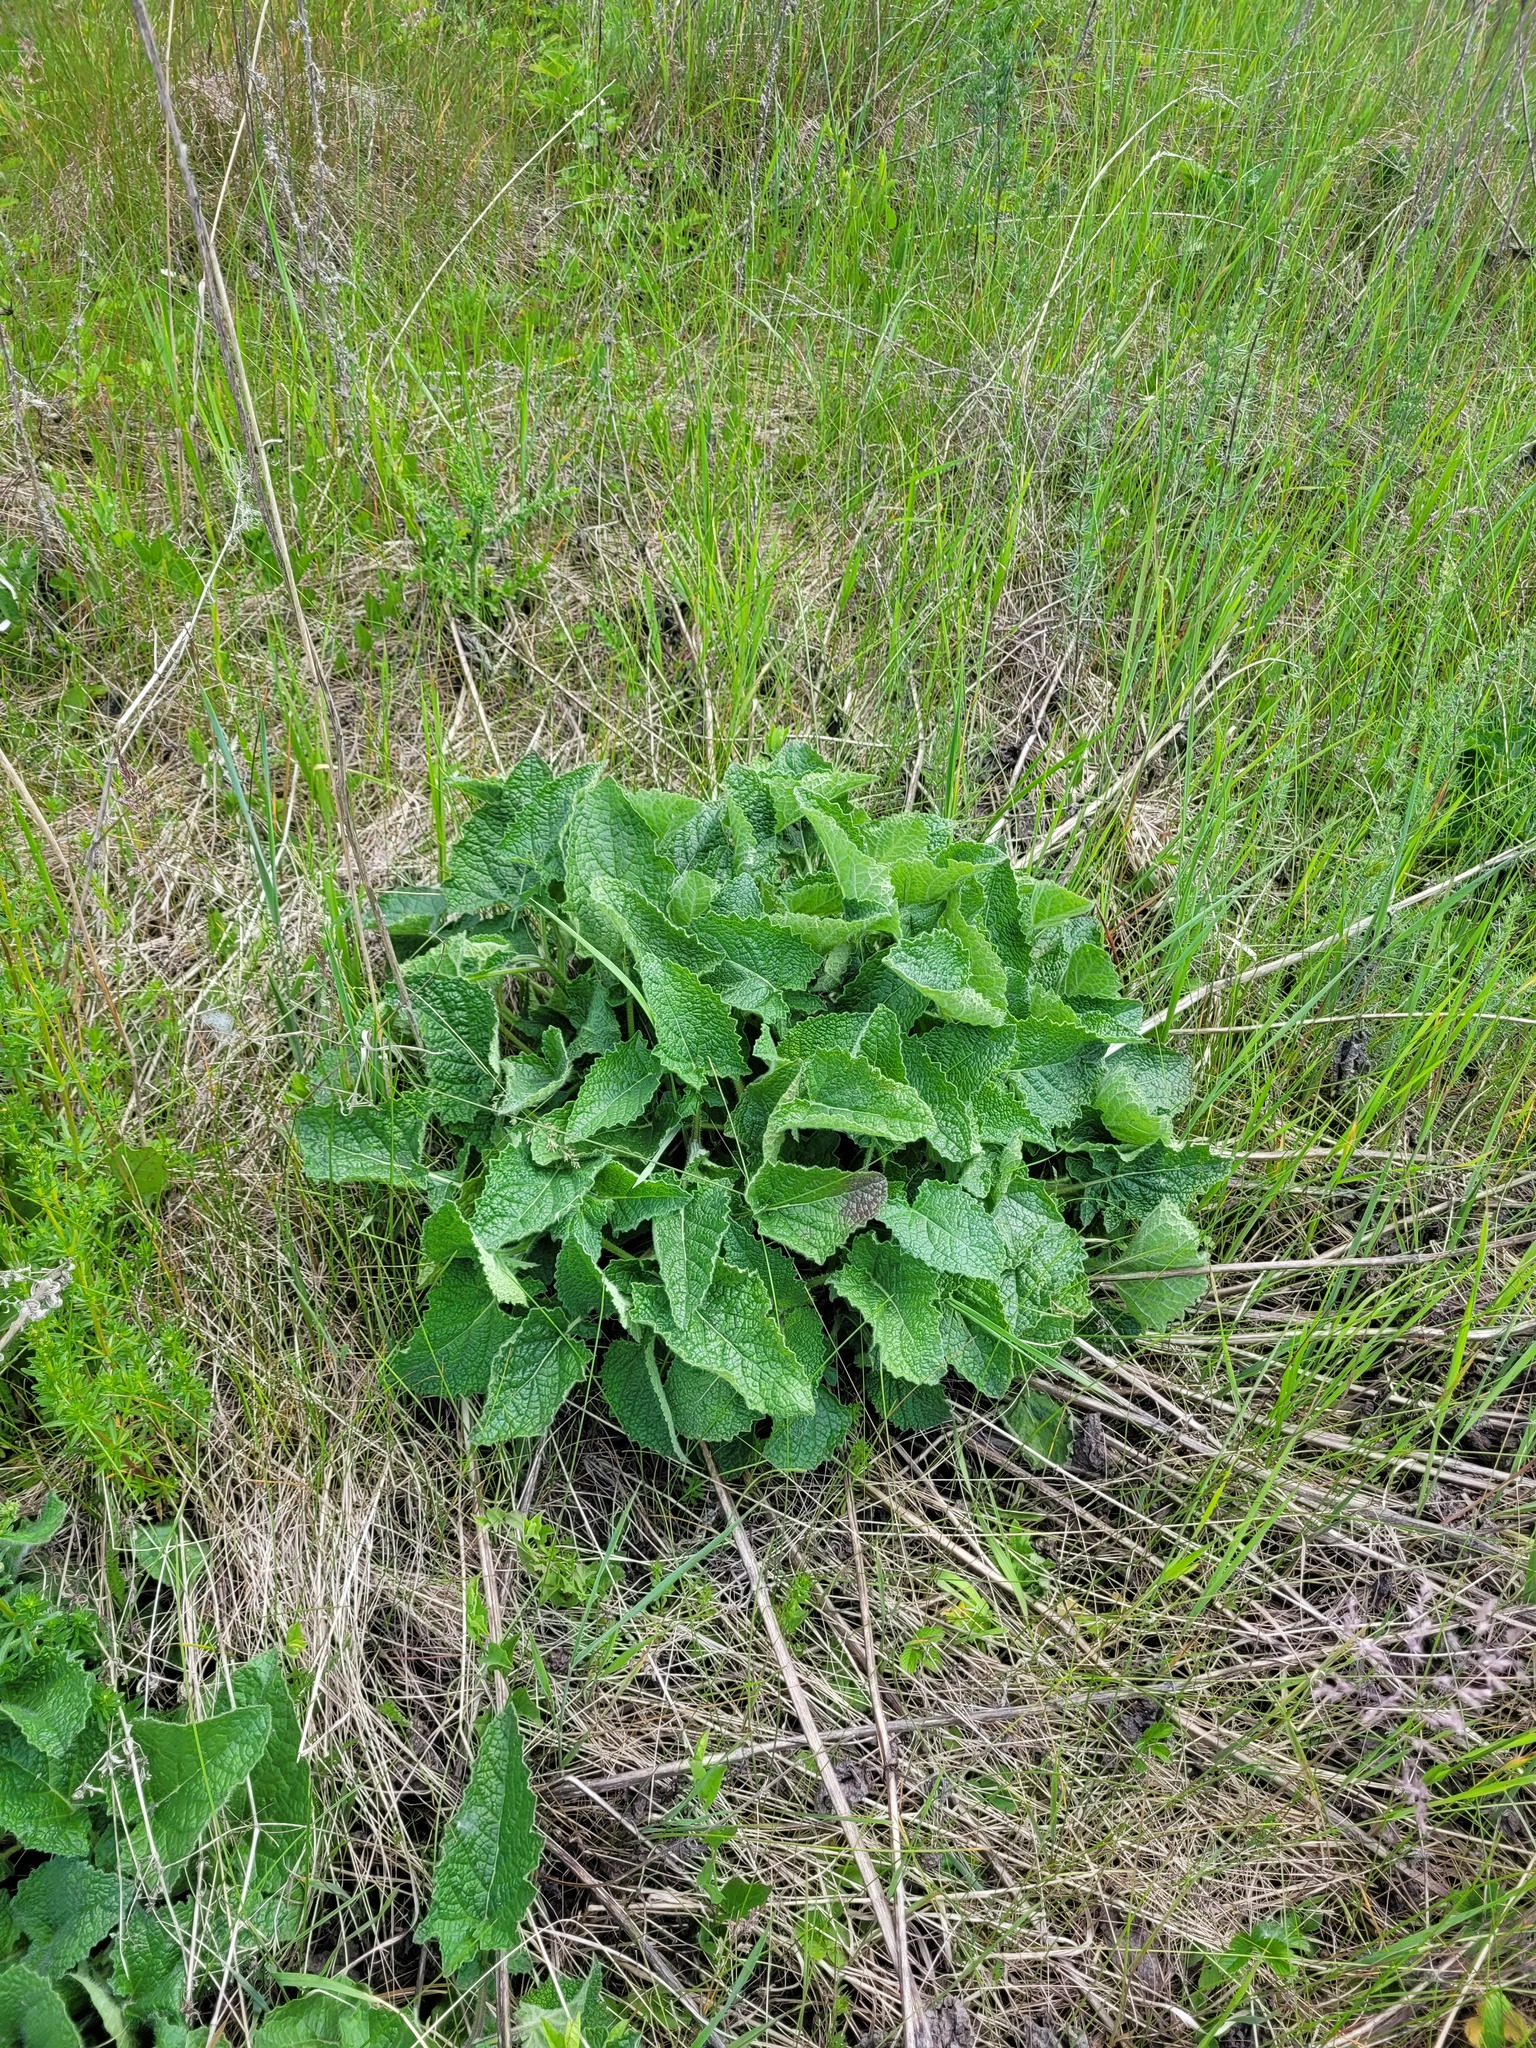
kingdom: Plantae
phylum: Tracheophyta
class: Magnoliopsida
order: Lamiales
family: Lamiaceae
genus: Salvia
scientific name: Salvia verticillata
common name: Whorled clary
